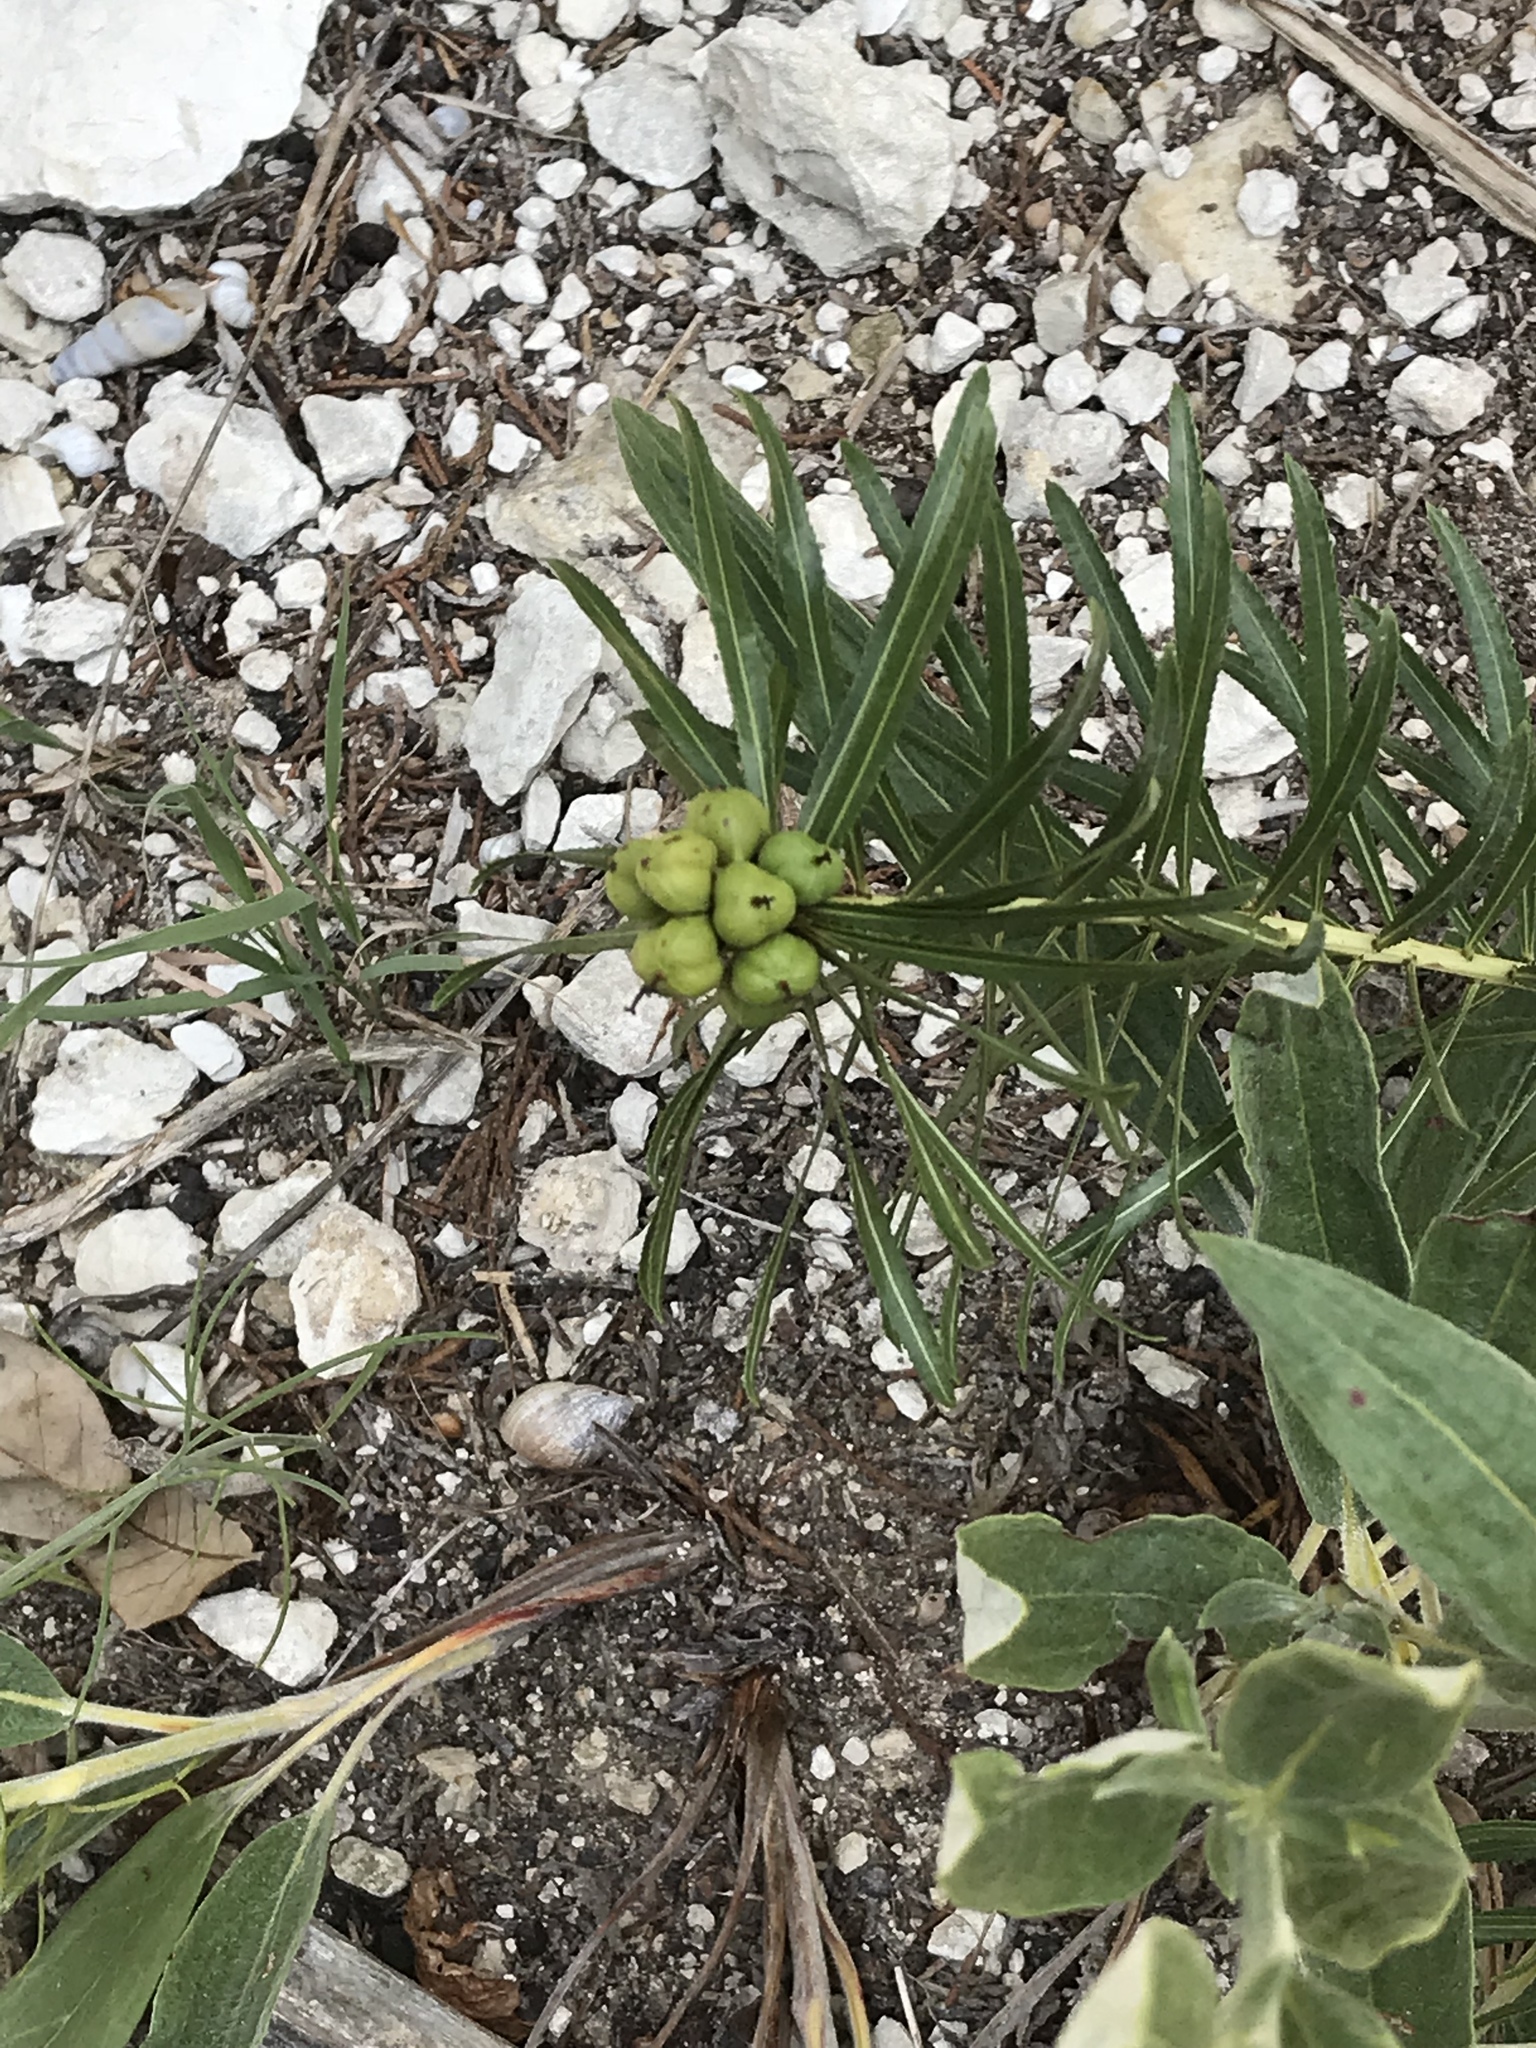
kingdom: Plantae
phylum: Tracheophyta
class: Magnoliopsida
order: Malpighiales
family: Euphorbiaceae
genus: Stillingia
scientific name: Stillingia texana
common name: Texas stillingia
